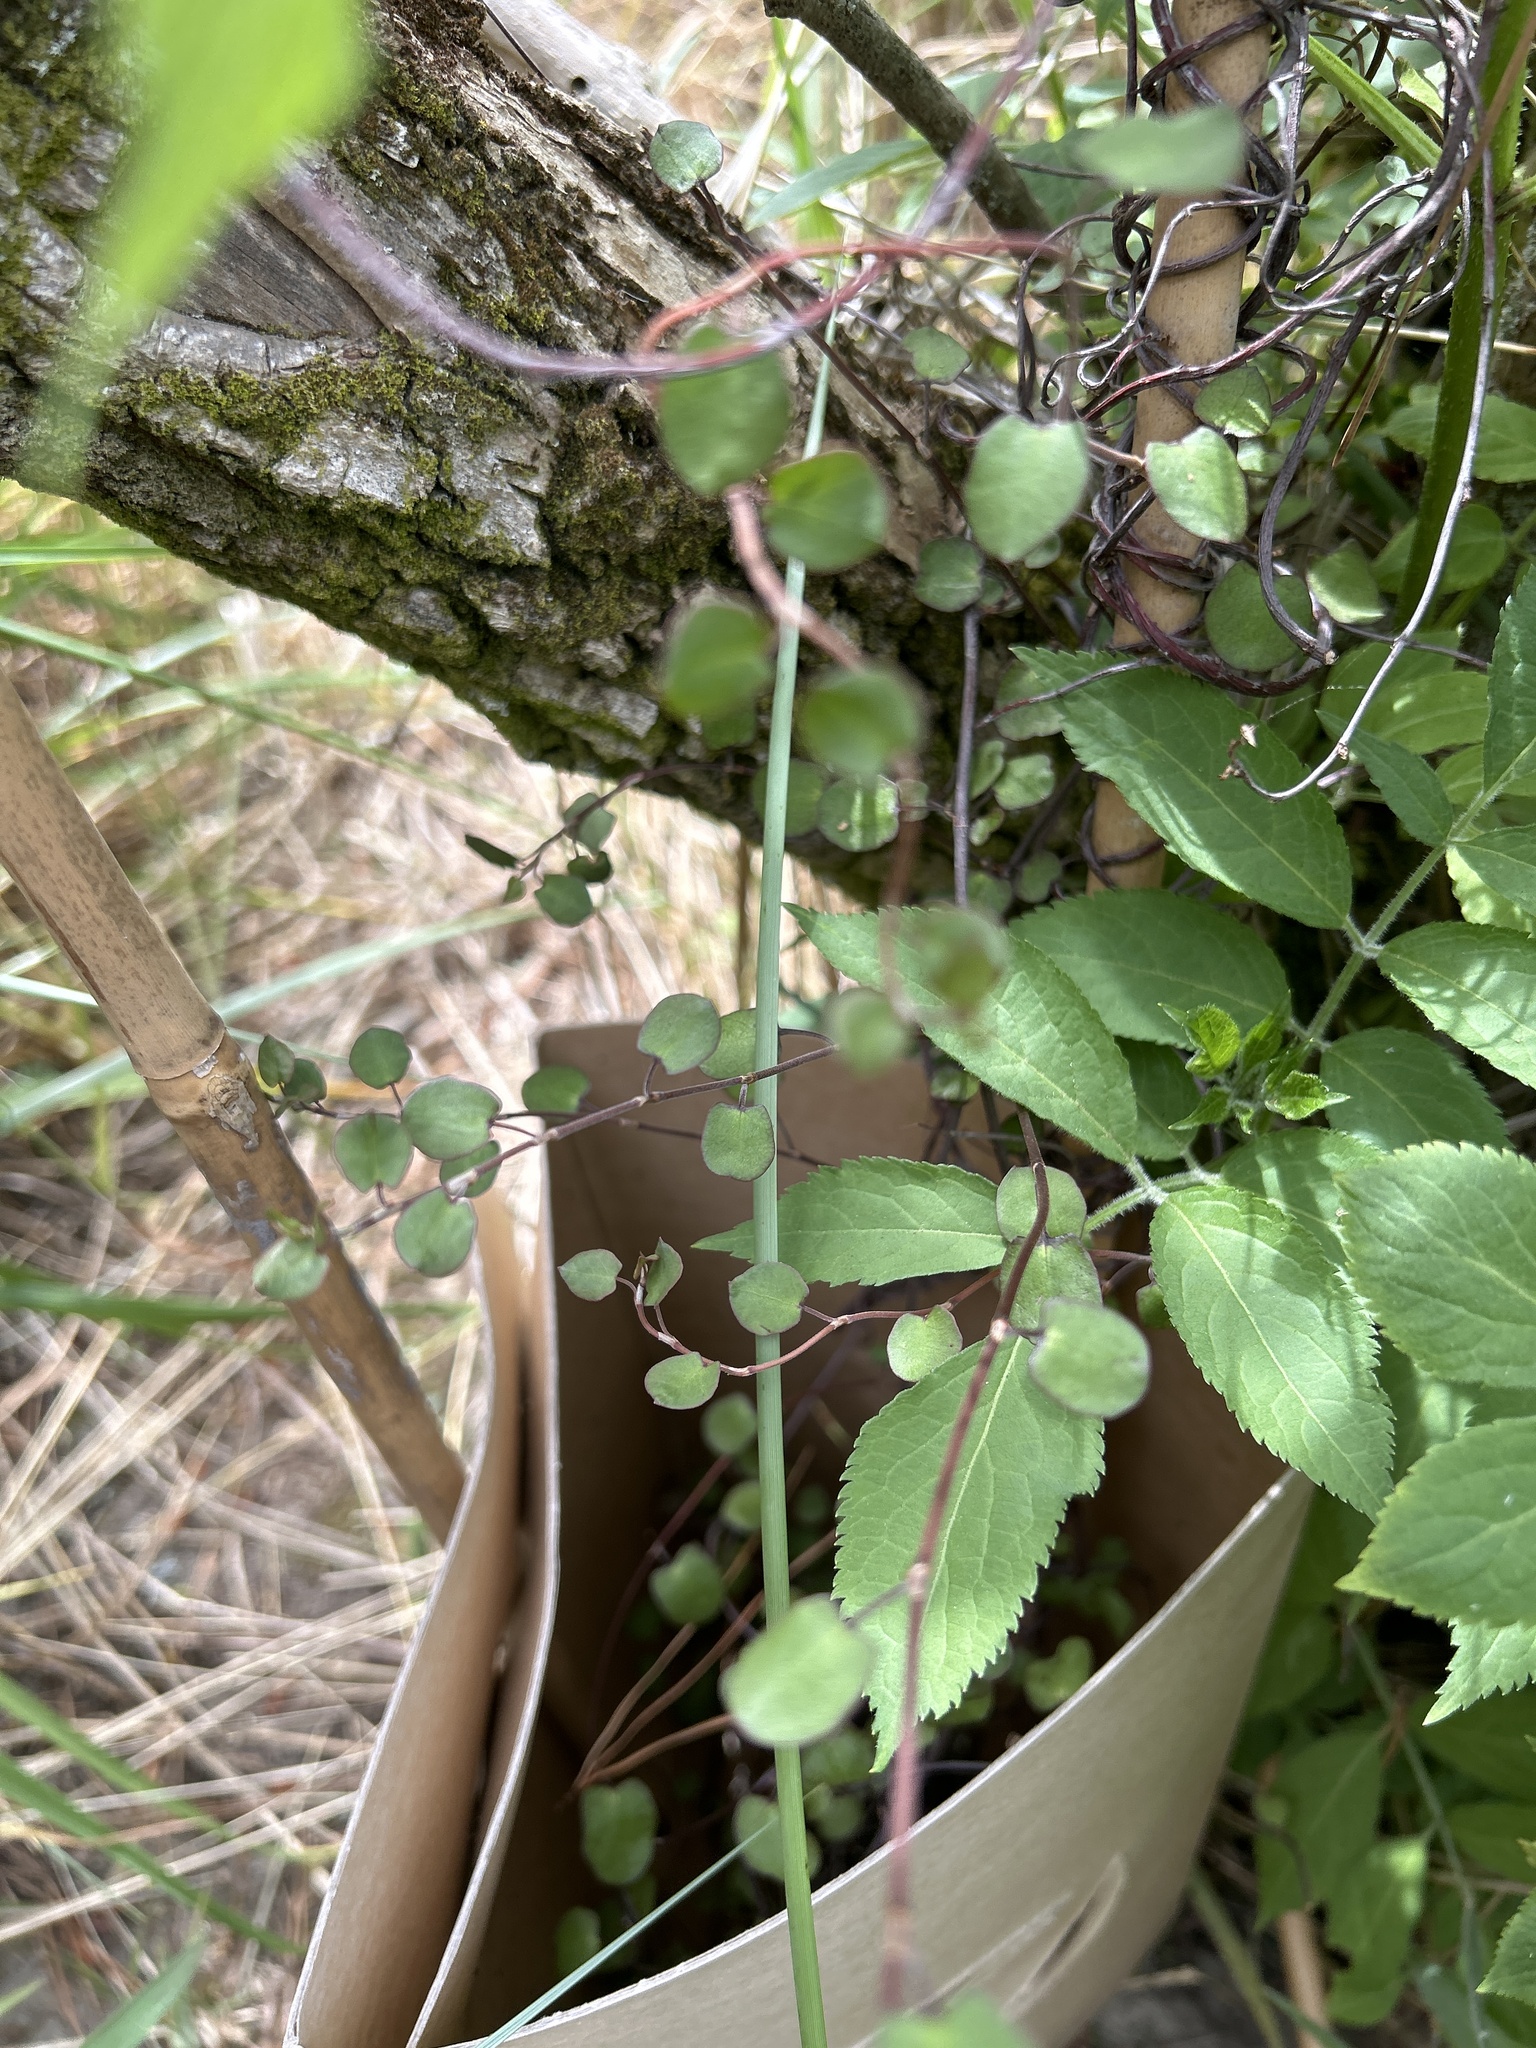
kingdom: Plantae
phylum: Tracheophyta
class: Magnoliopsida
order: Caryophyllales
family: Polygonaceae
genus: Muehlenbeckia
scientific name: Muehlenbeckia complexa
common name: Wireplant
